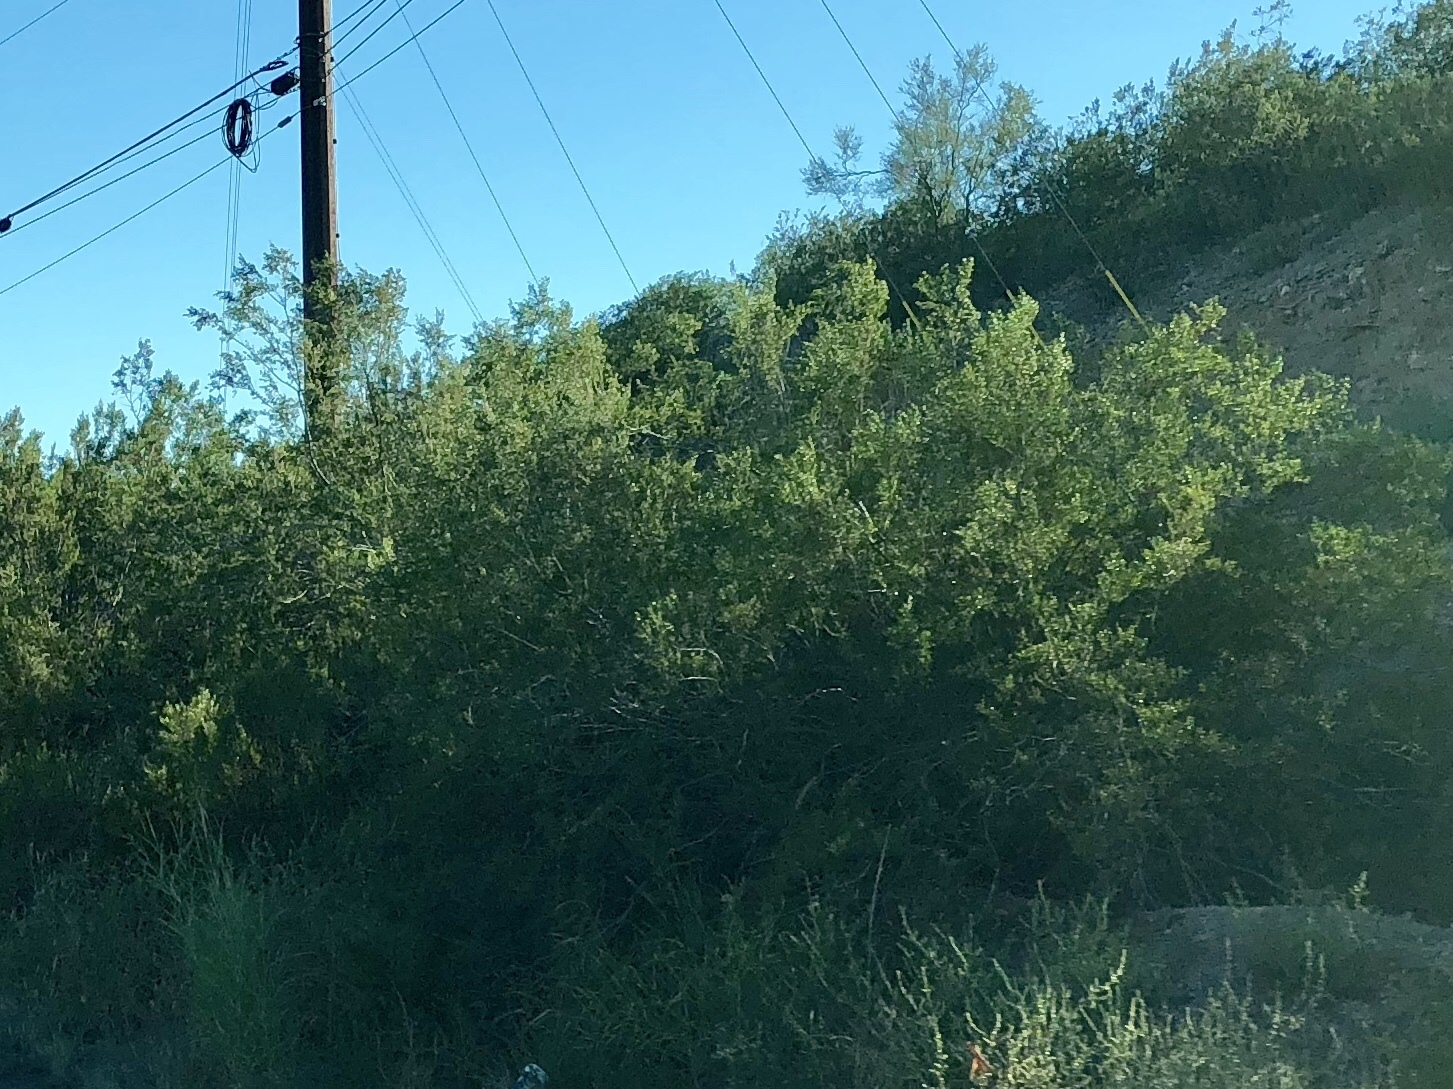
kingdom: Plantae
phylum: Tracheophyta
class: Magnoliopsida
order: Zygophyllales
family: Zygophyllaceae
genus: Larrea
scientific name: Larrea tridentata
